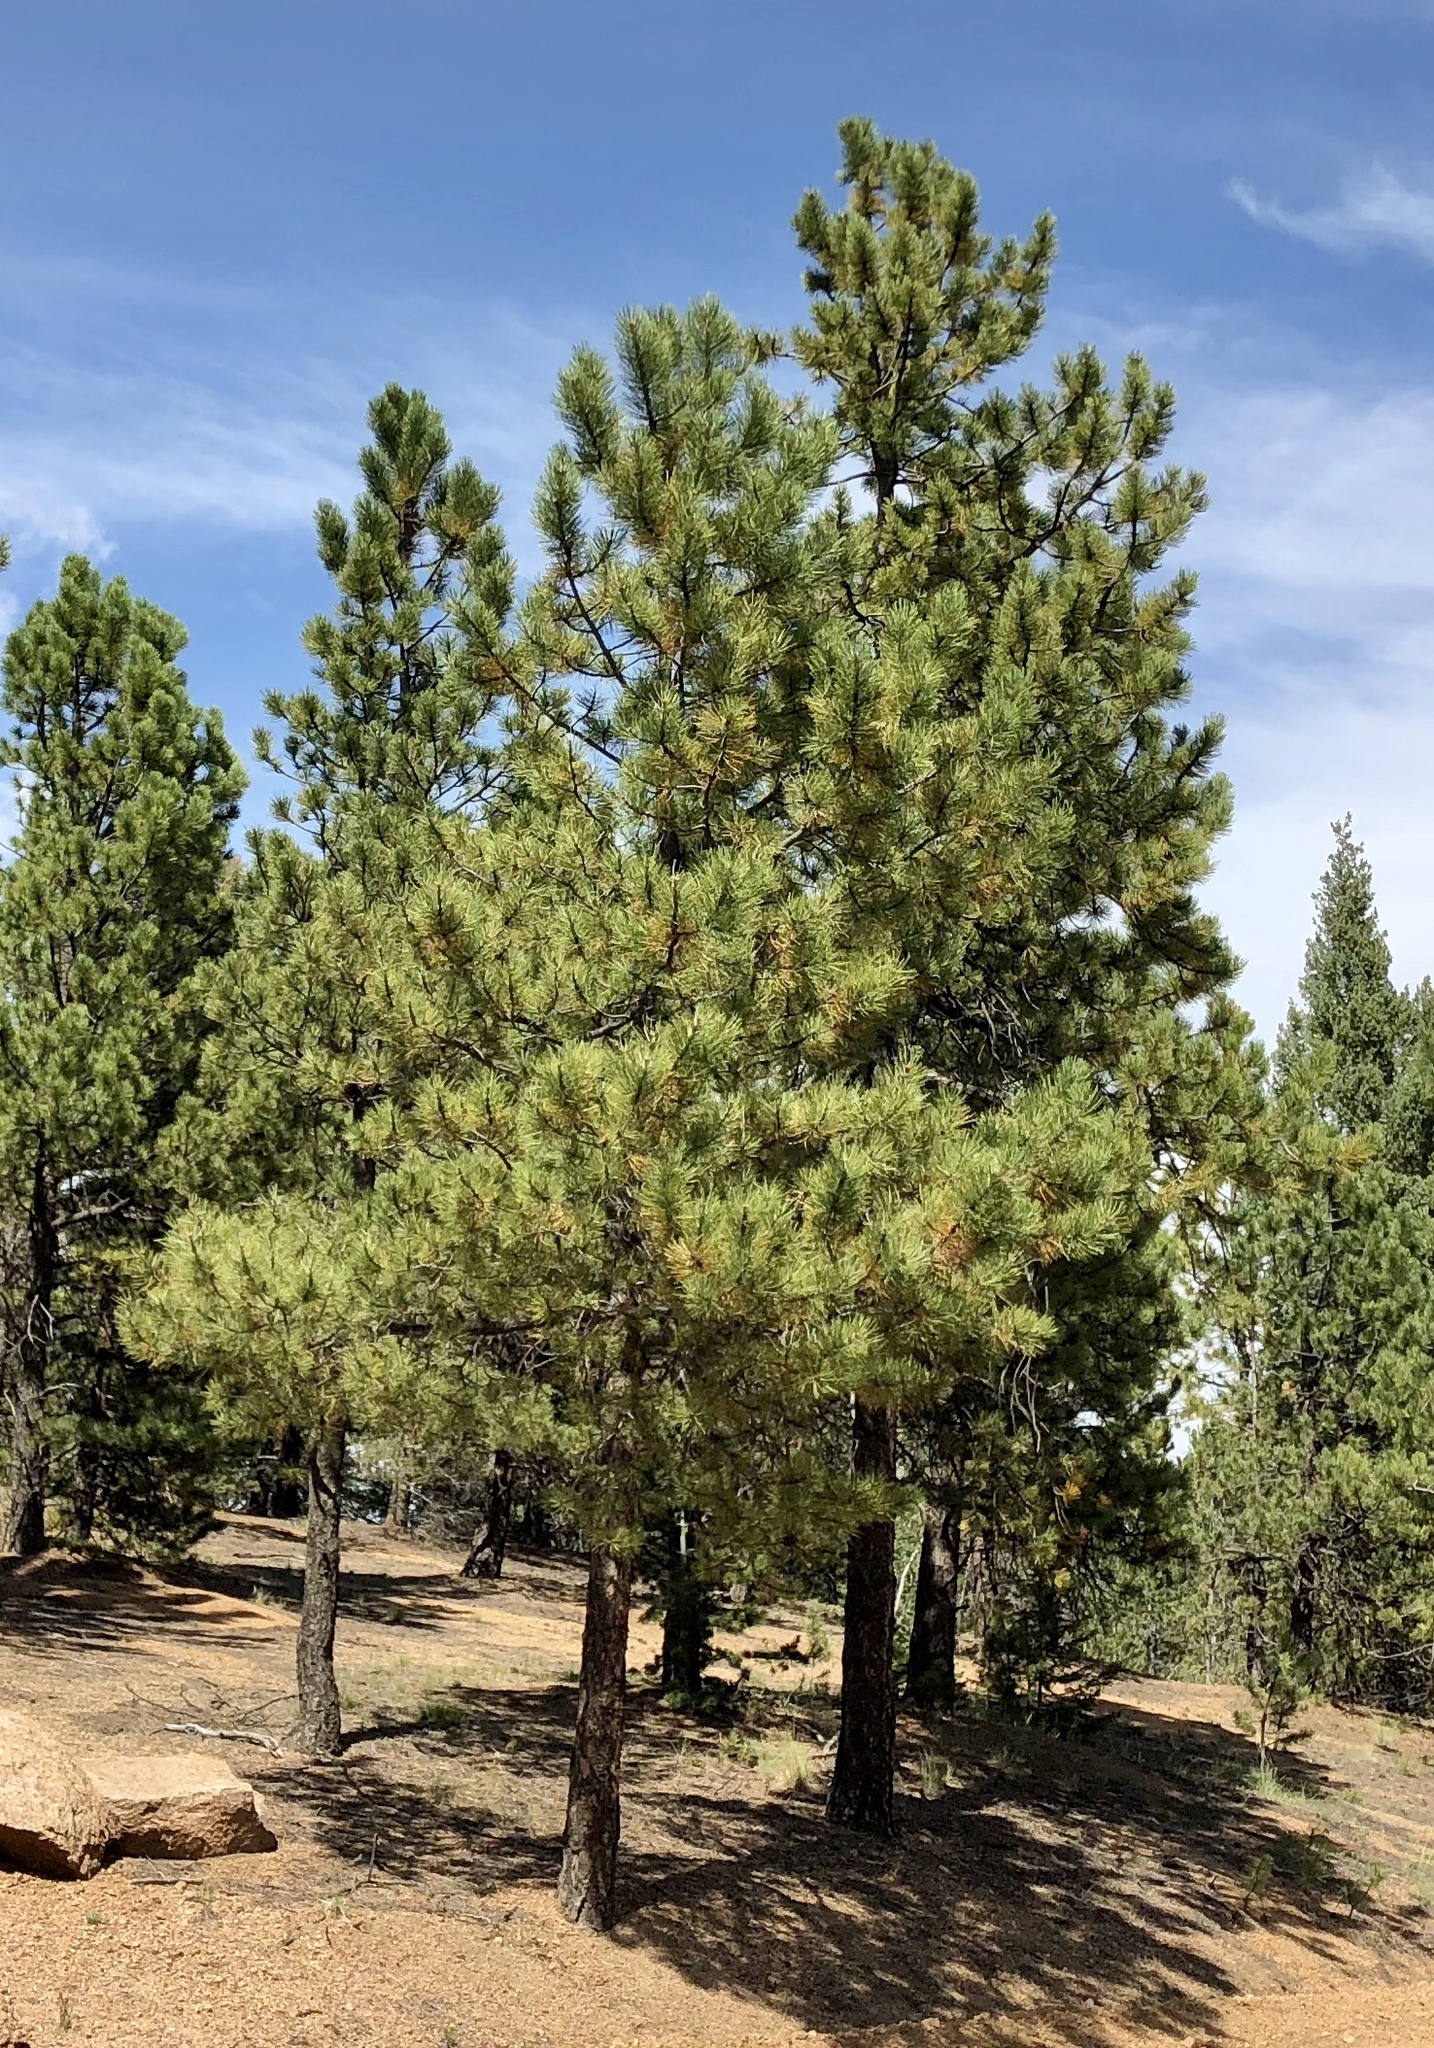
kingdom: Plantae
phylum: Tracheophyta
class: Pinopsida
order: Pinales
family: Pinaceae
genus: Pinus
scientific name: Pinus ponderosa
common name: Western yellow-pine
